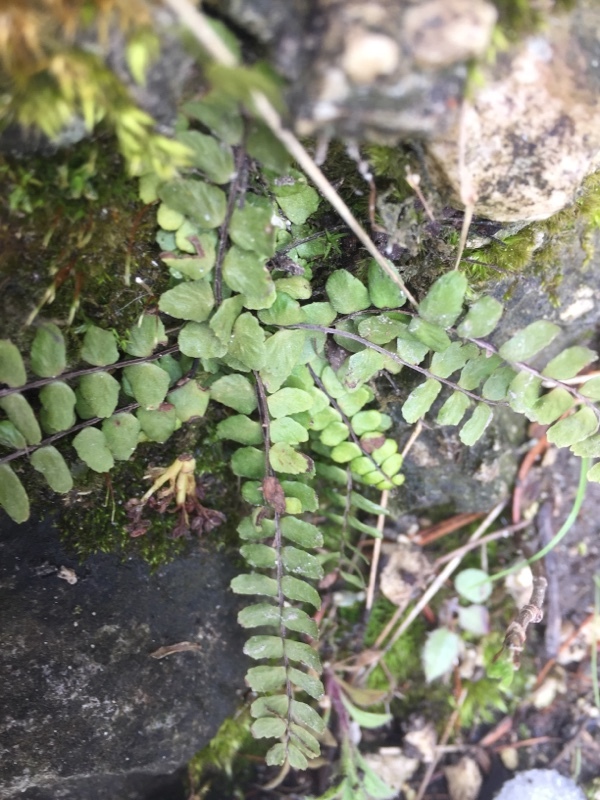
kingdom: Plantae
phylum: Tracheophyta
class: Polypodiopsida
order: Polypodiales
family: Aspleniaceae
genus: Asplenium
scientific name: Asplenium trichomanes
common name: Maidenhair spleenwort
